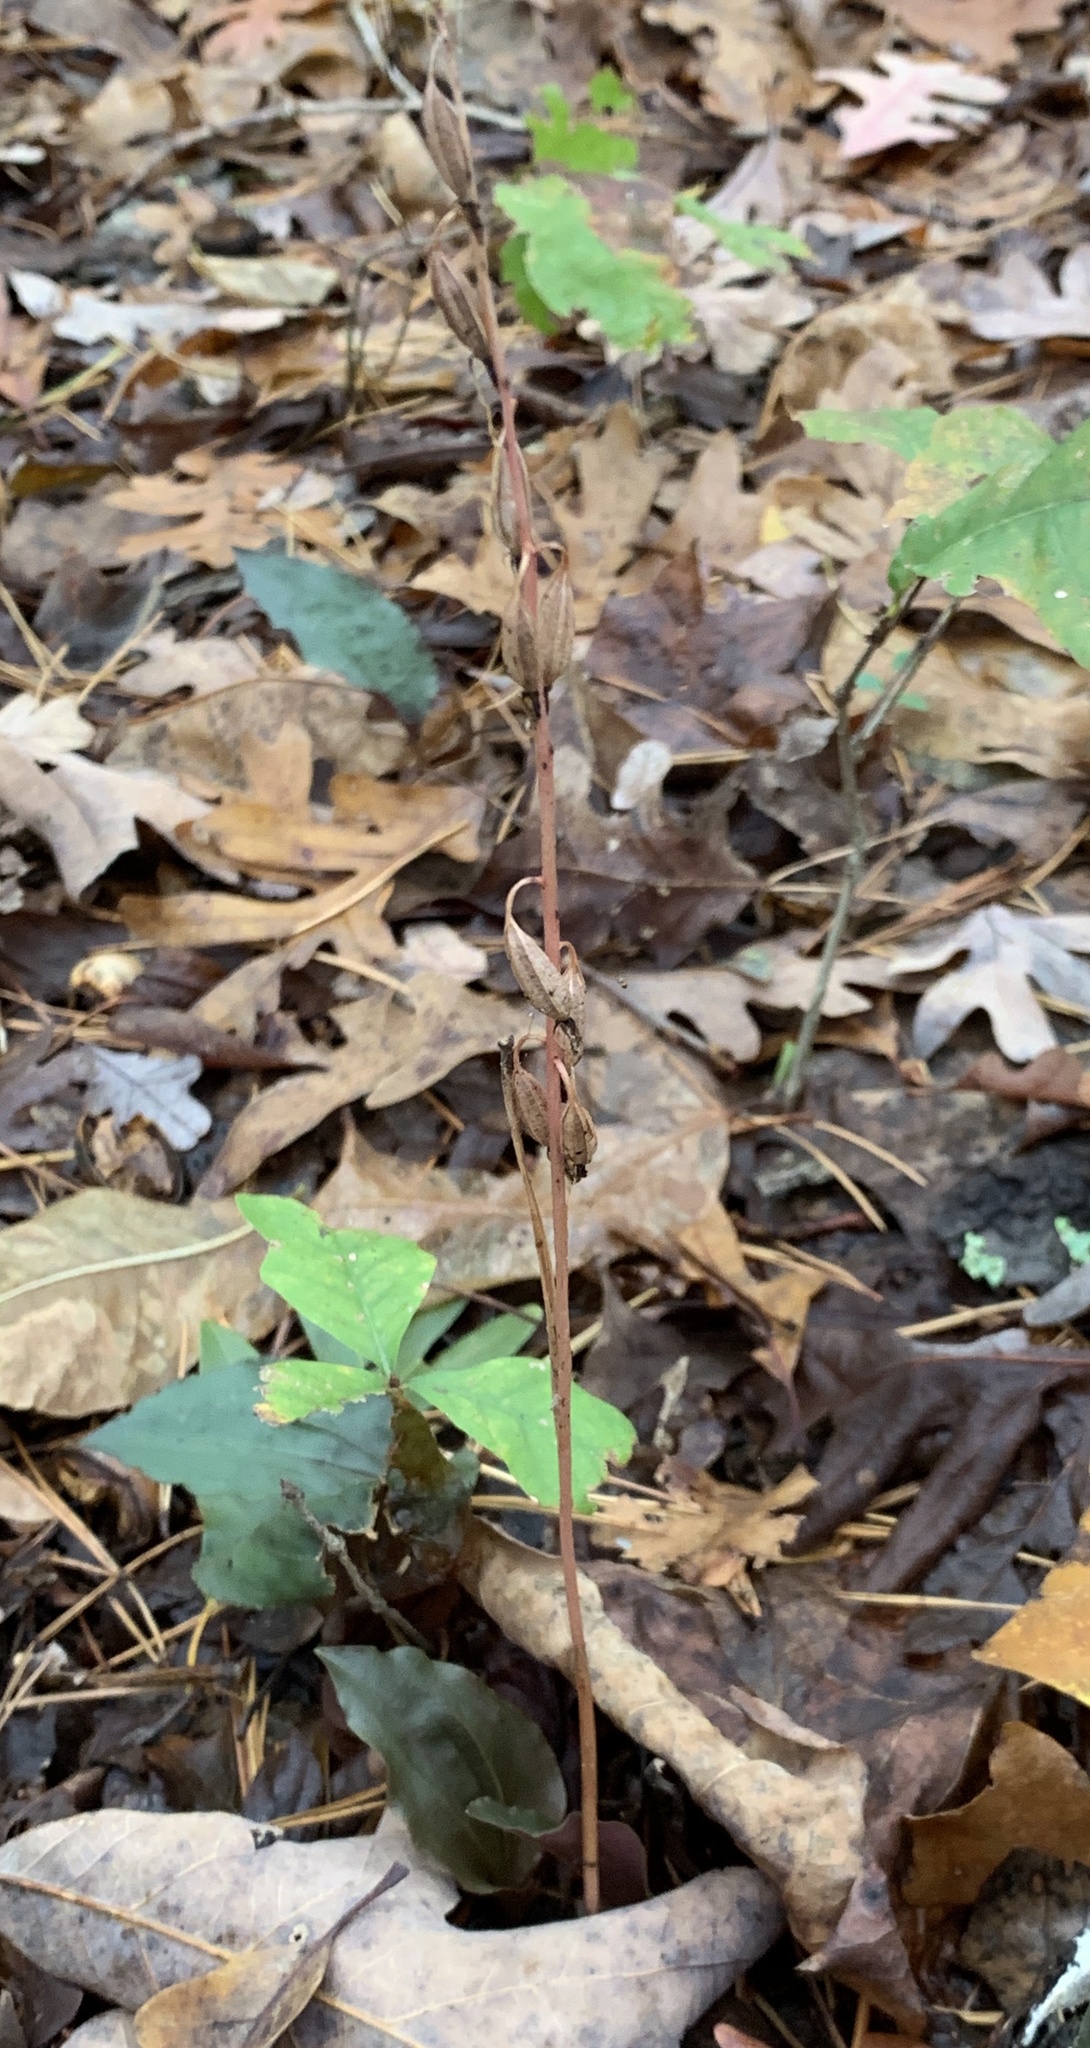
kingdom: Plantae
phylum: Tracheophyta
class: Liliopsida
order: Asparagales
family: Orchidaceae
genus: Tipularia
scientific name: Tipularia discolor
